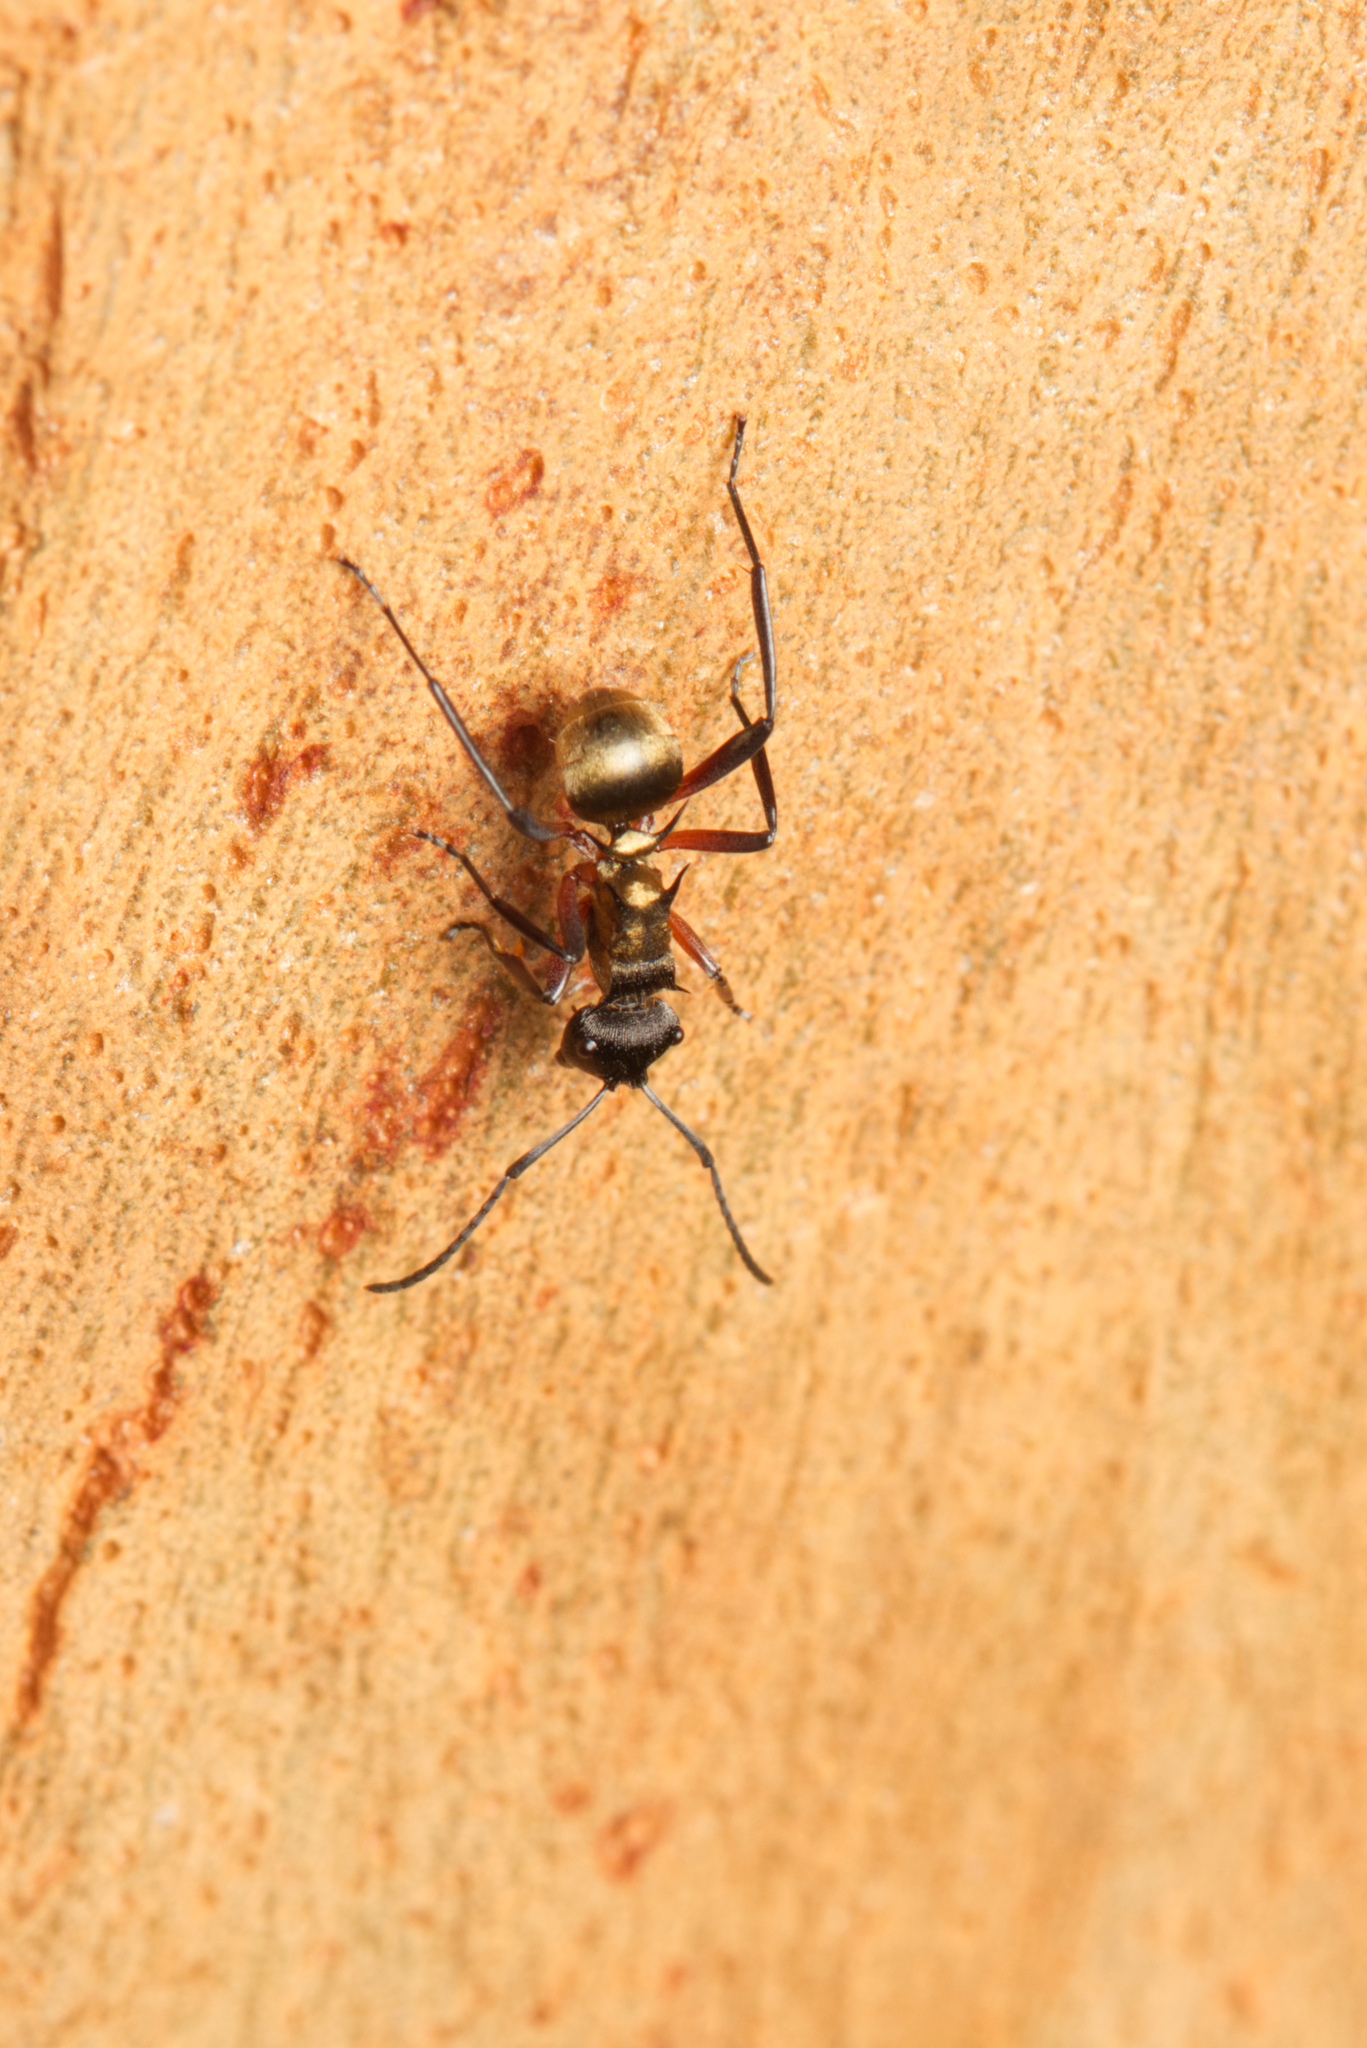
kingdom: Animalia
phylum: Arthropoda
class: Insecta
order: Hymenoptera
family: Formicidae
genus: Polyrhachis
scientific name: Polyrhachis rufifemur
